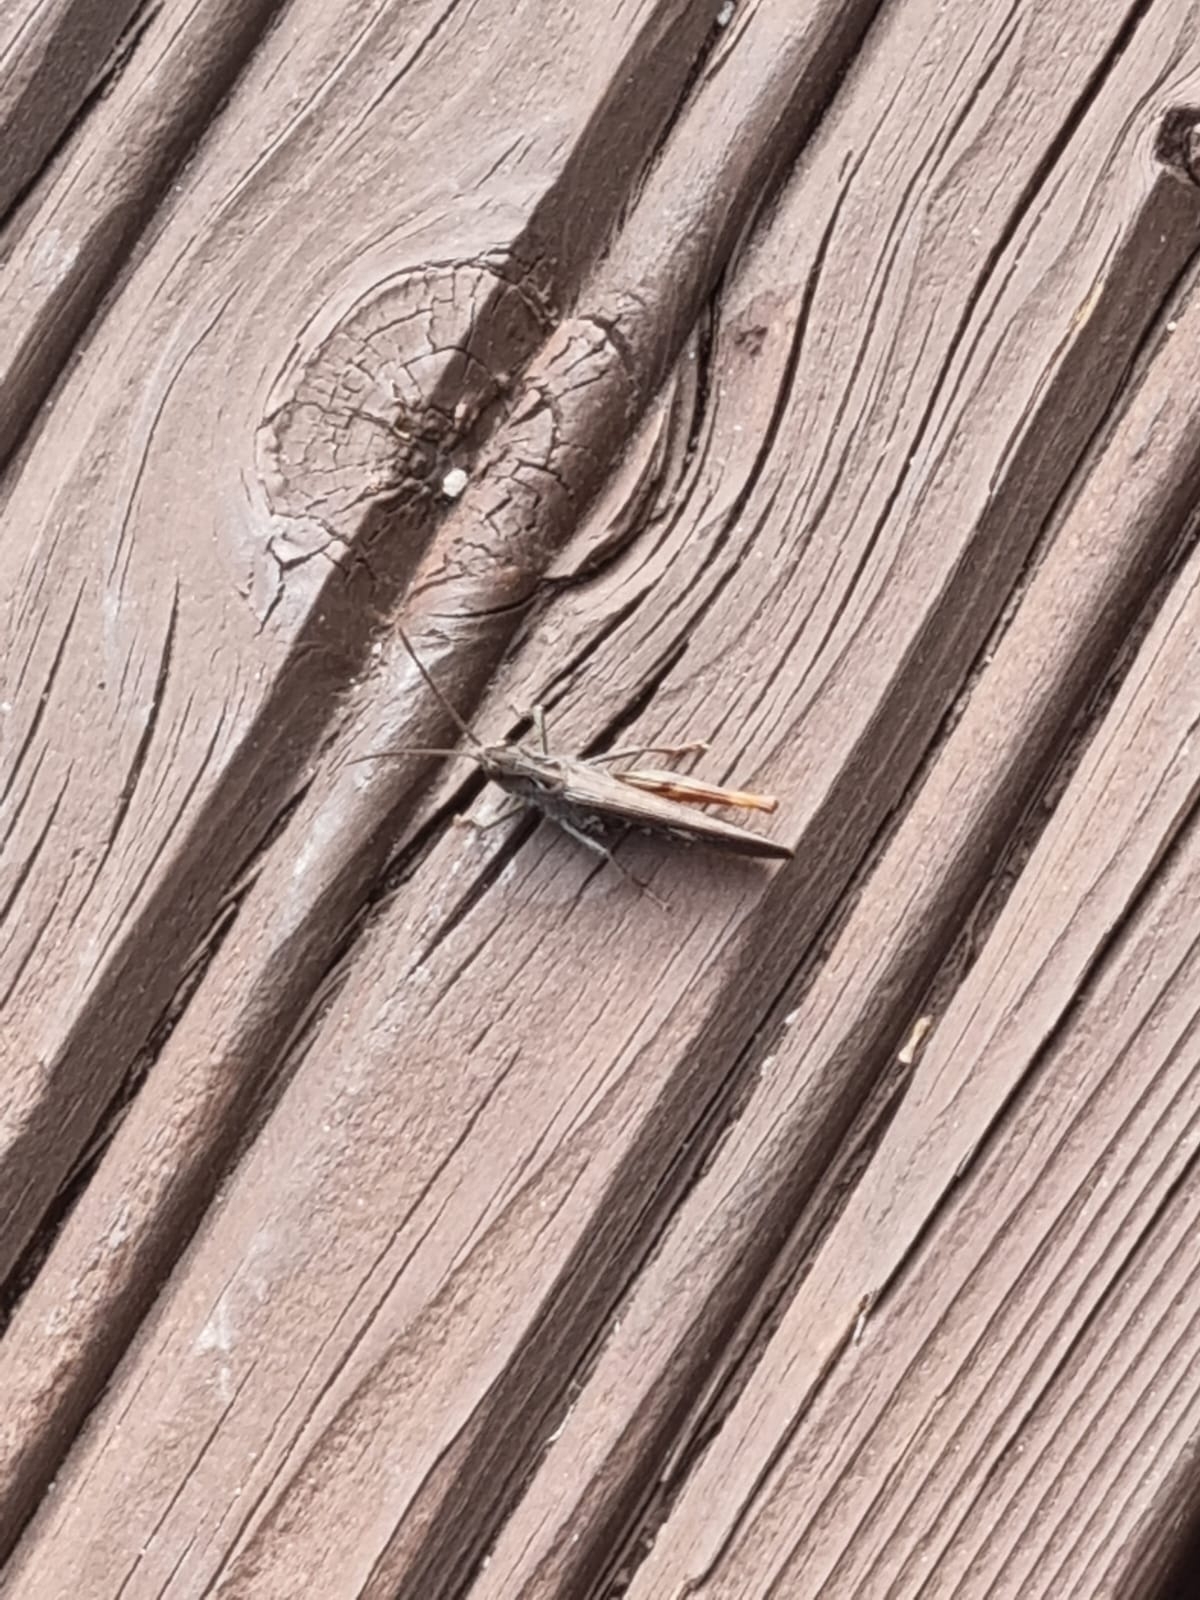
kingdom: Animalia
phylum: Arthropoda
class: Insecta
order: Orthoptera
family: Acrididae
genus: Chorthippus
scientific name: Chorthippus brunneus
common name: Field grasshopper
